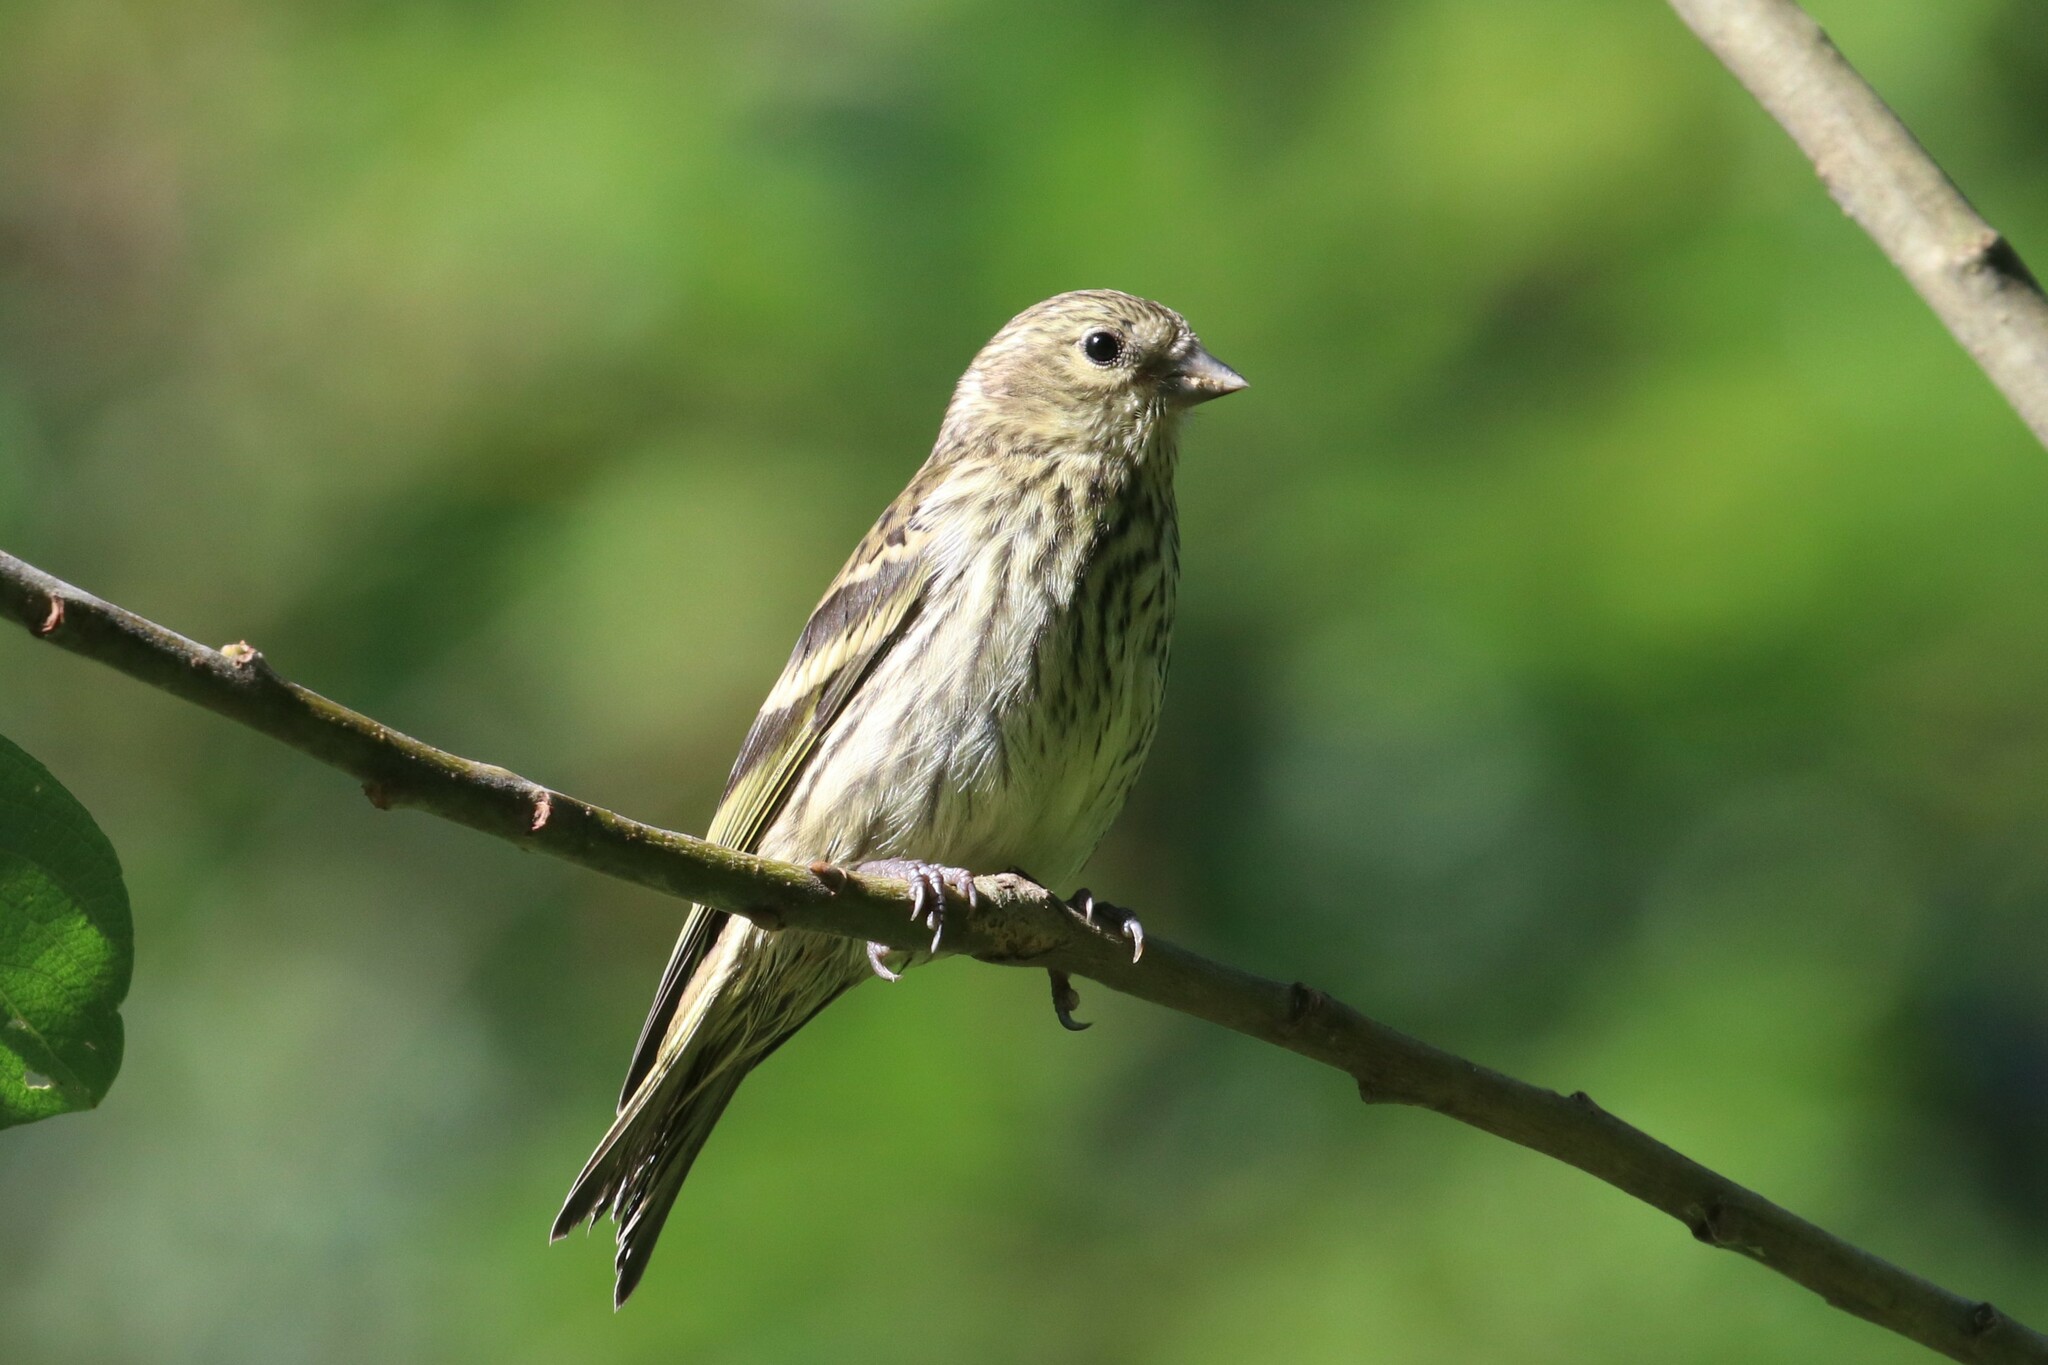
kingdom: Animalia
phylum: Chordata
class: Aves
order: Passeriformes
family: Fringillidae
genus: Spinus
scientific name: Spinus spinus
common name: Eurasian siskin
